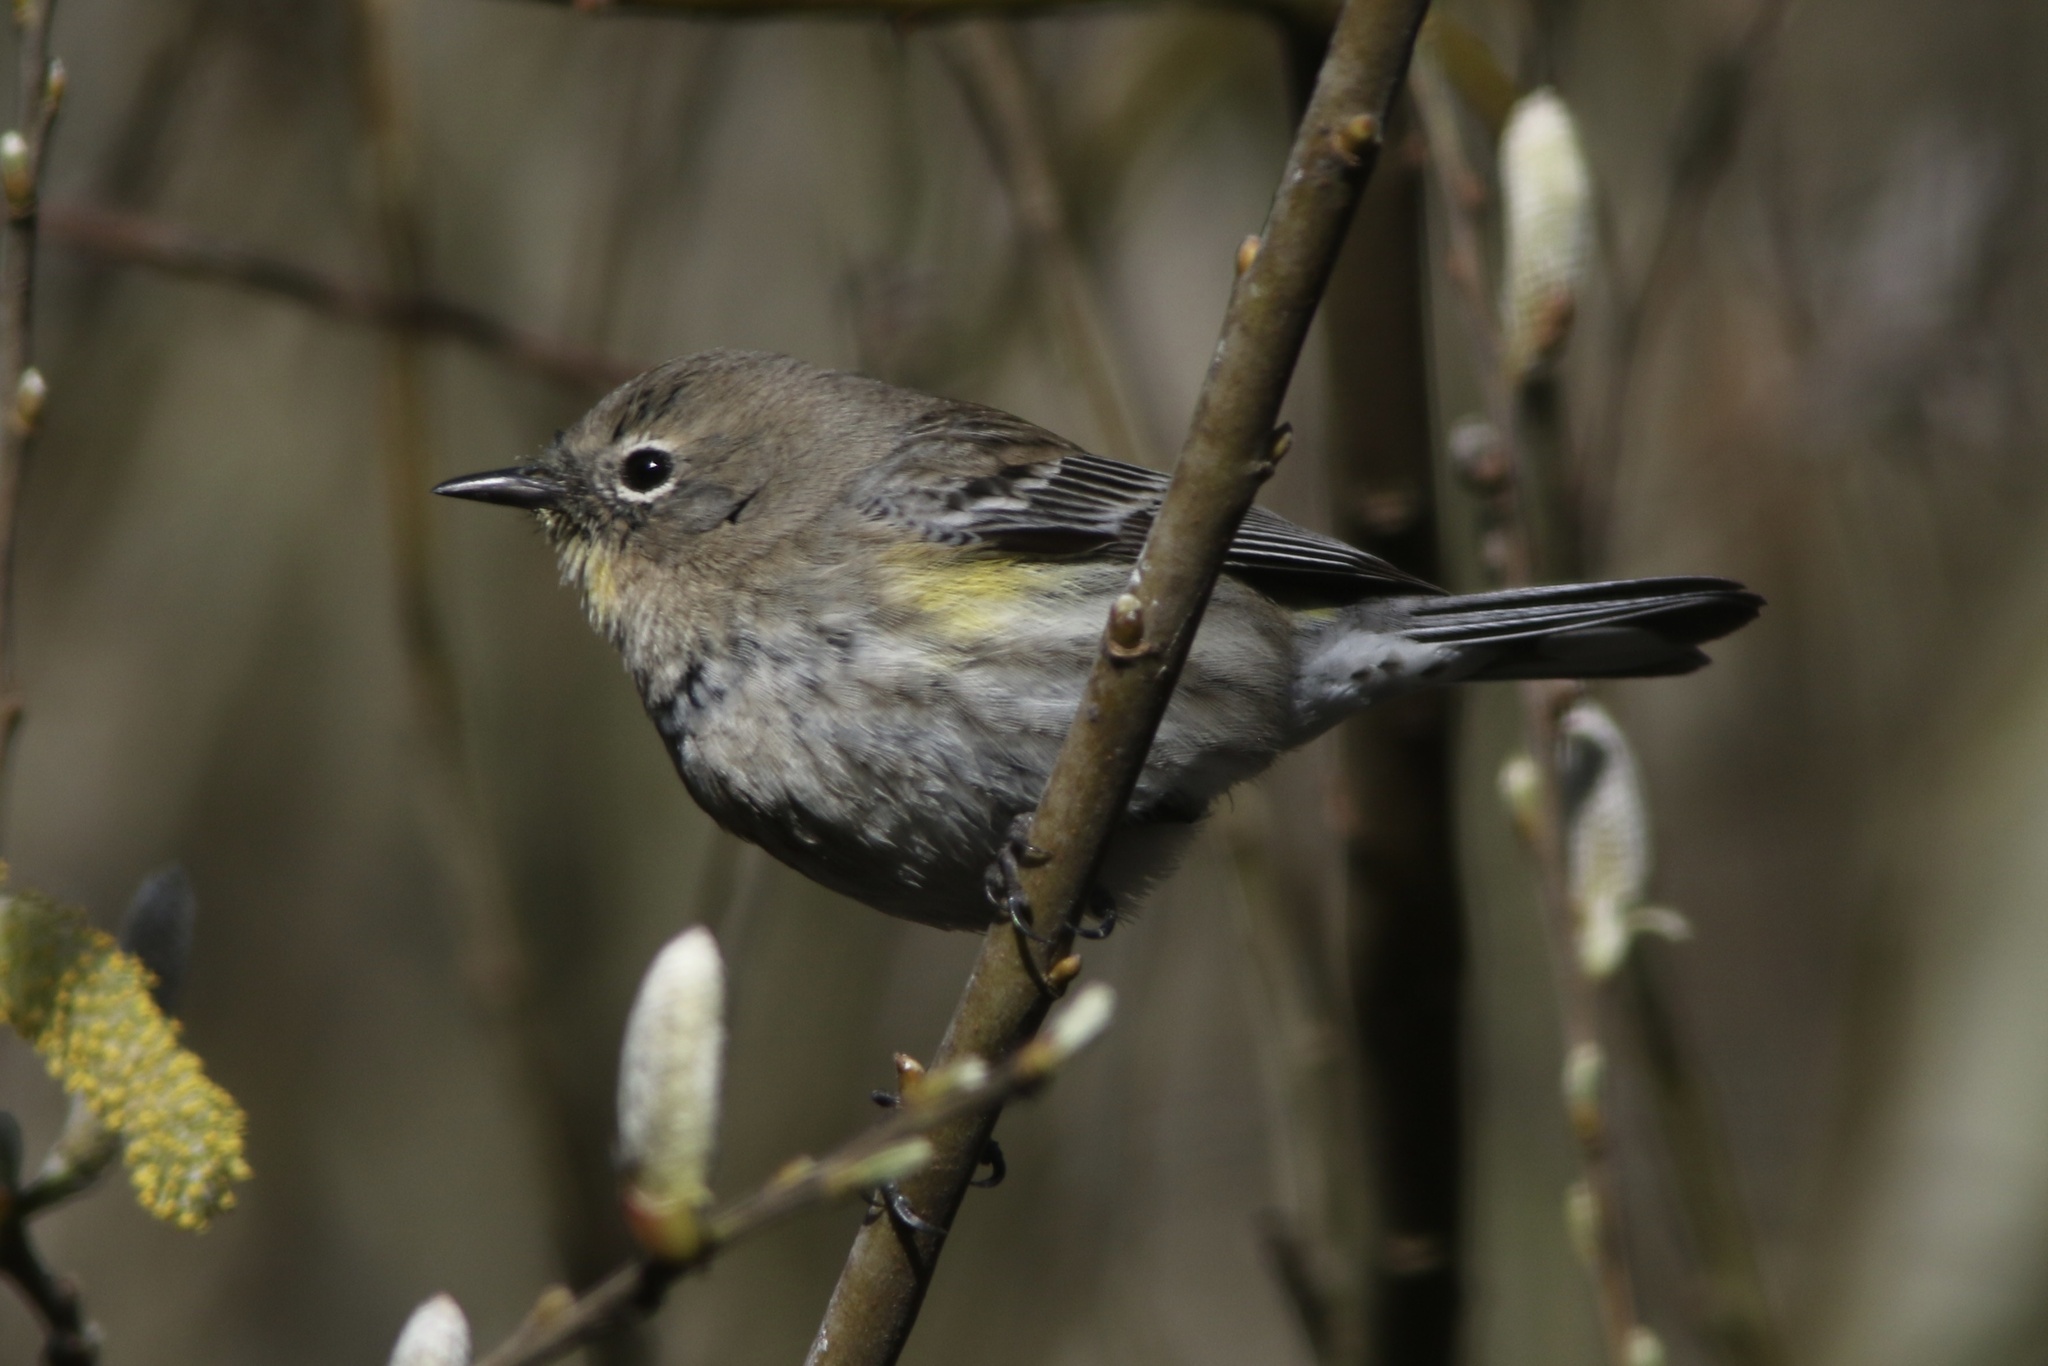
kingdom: Animalia
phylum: Chordata
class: Aves
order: Passeriformes
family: Parulidae
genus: Setophaga
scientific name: Setophaga coronata
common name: Myrtle warbler
